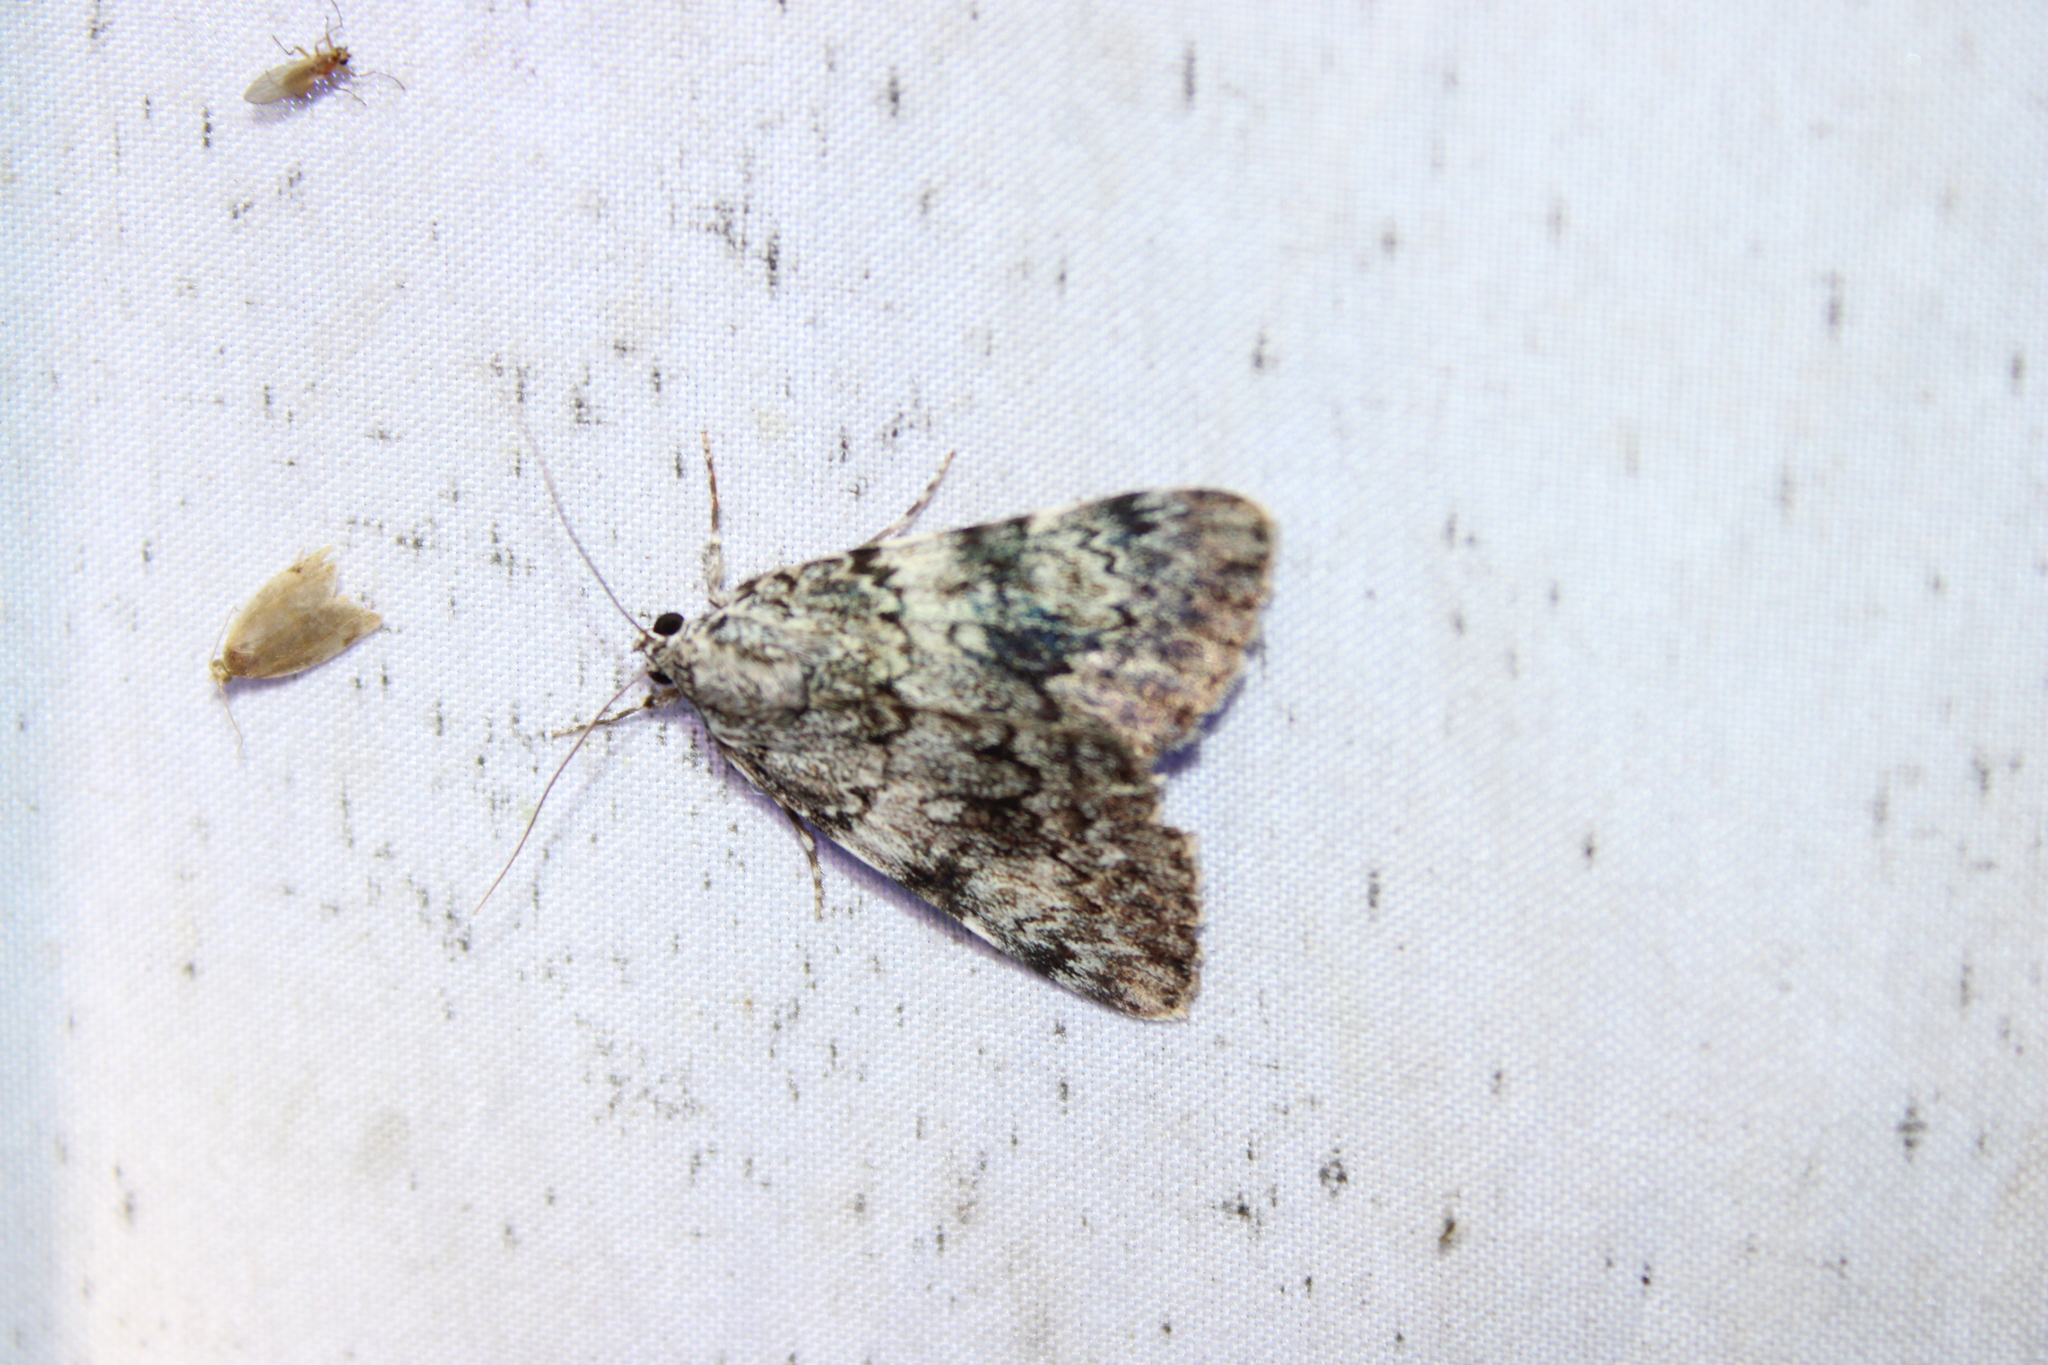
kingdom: Animalia
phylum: Arthropoda
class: Insecta
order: Lepidoptera
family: Erebidae
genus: Catocala
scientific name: Catocala lineella
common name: Little lined underwing
